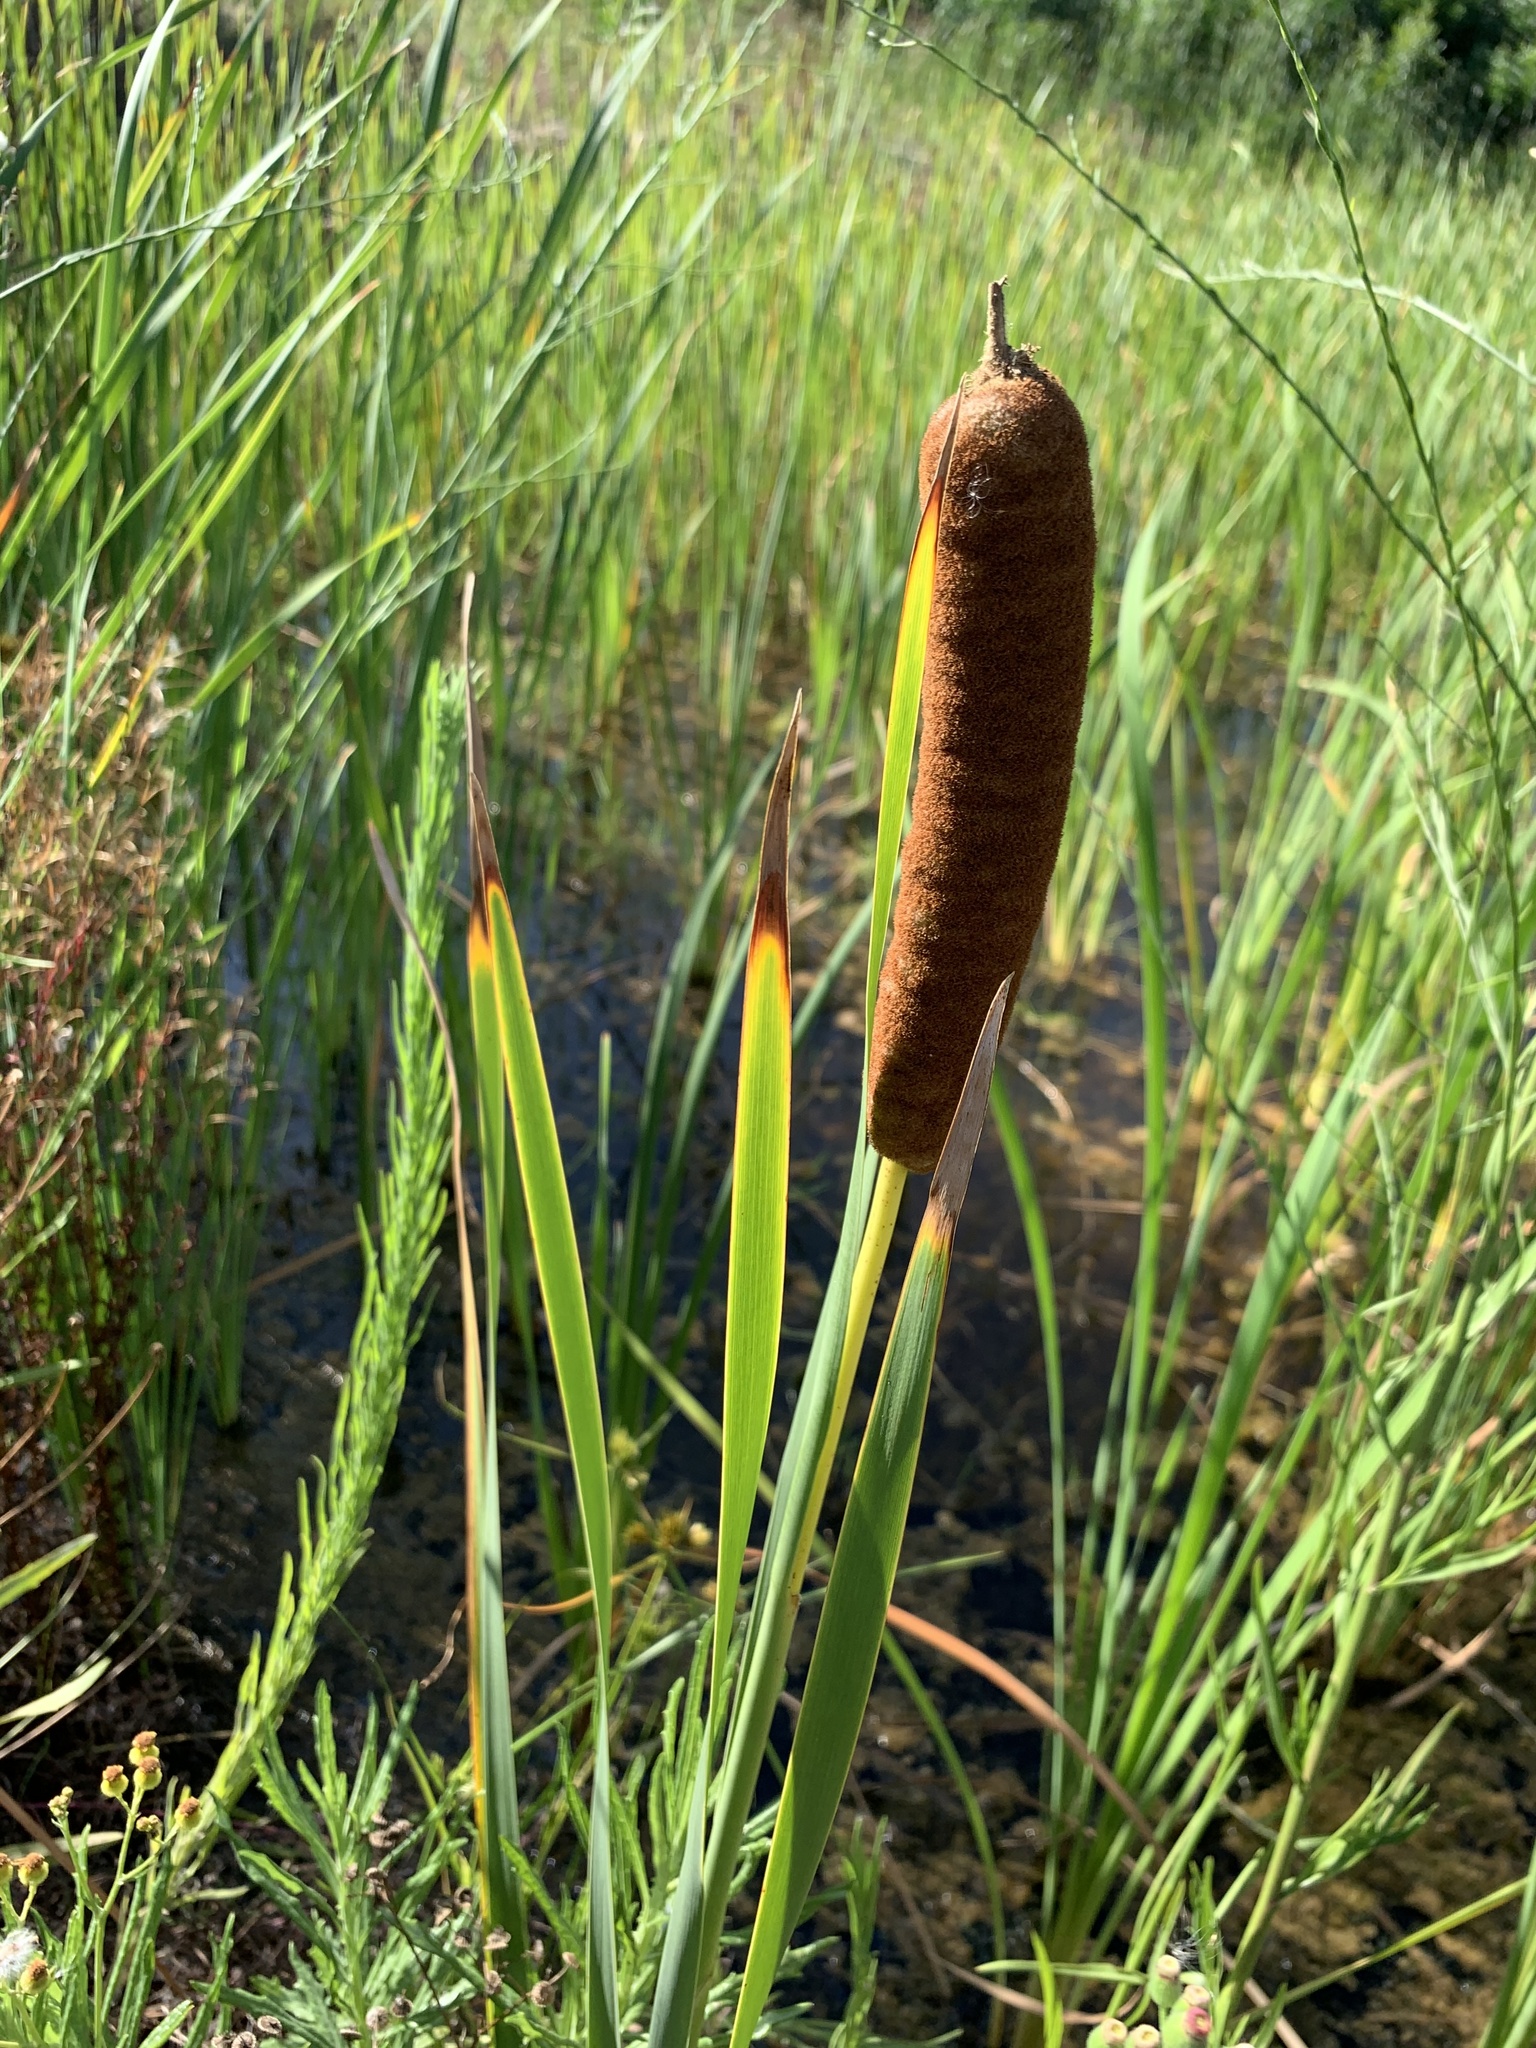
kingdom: Plantae
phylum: Tracheophyta
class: Liliopsida
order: Poales
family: Typhaceae
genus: Typha
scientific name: Typha capensis
